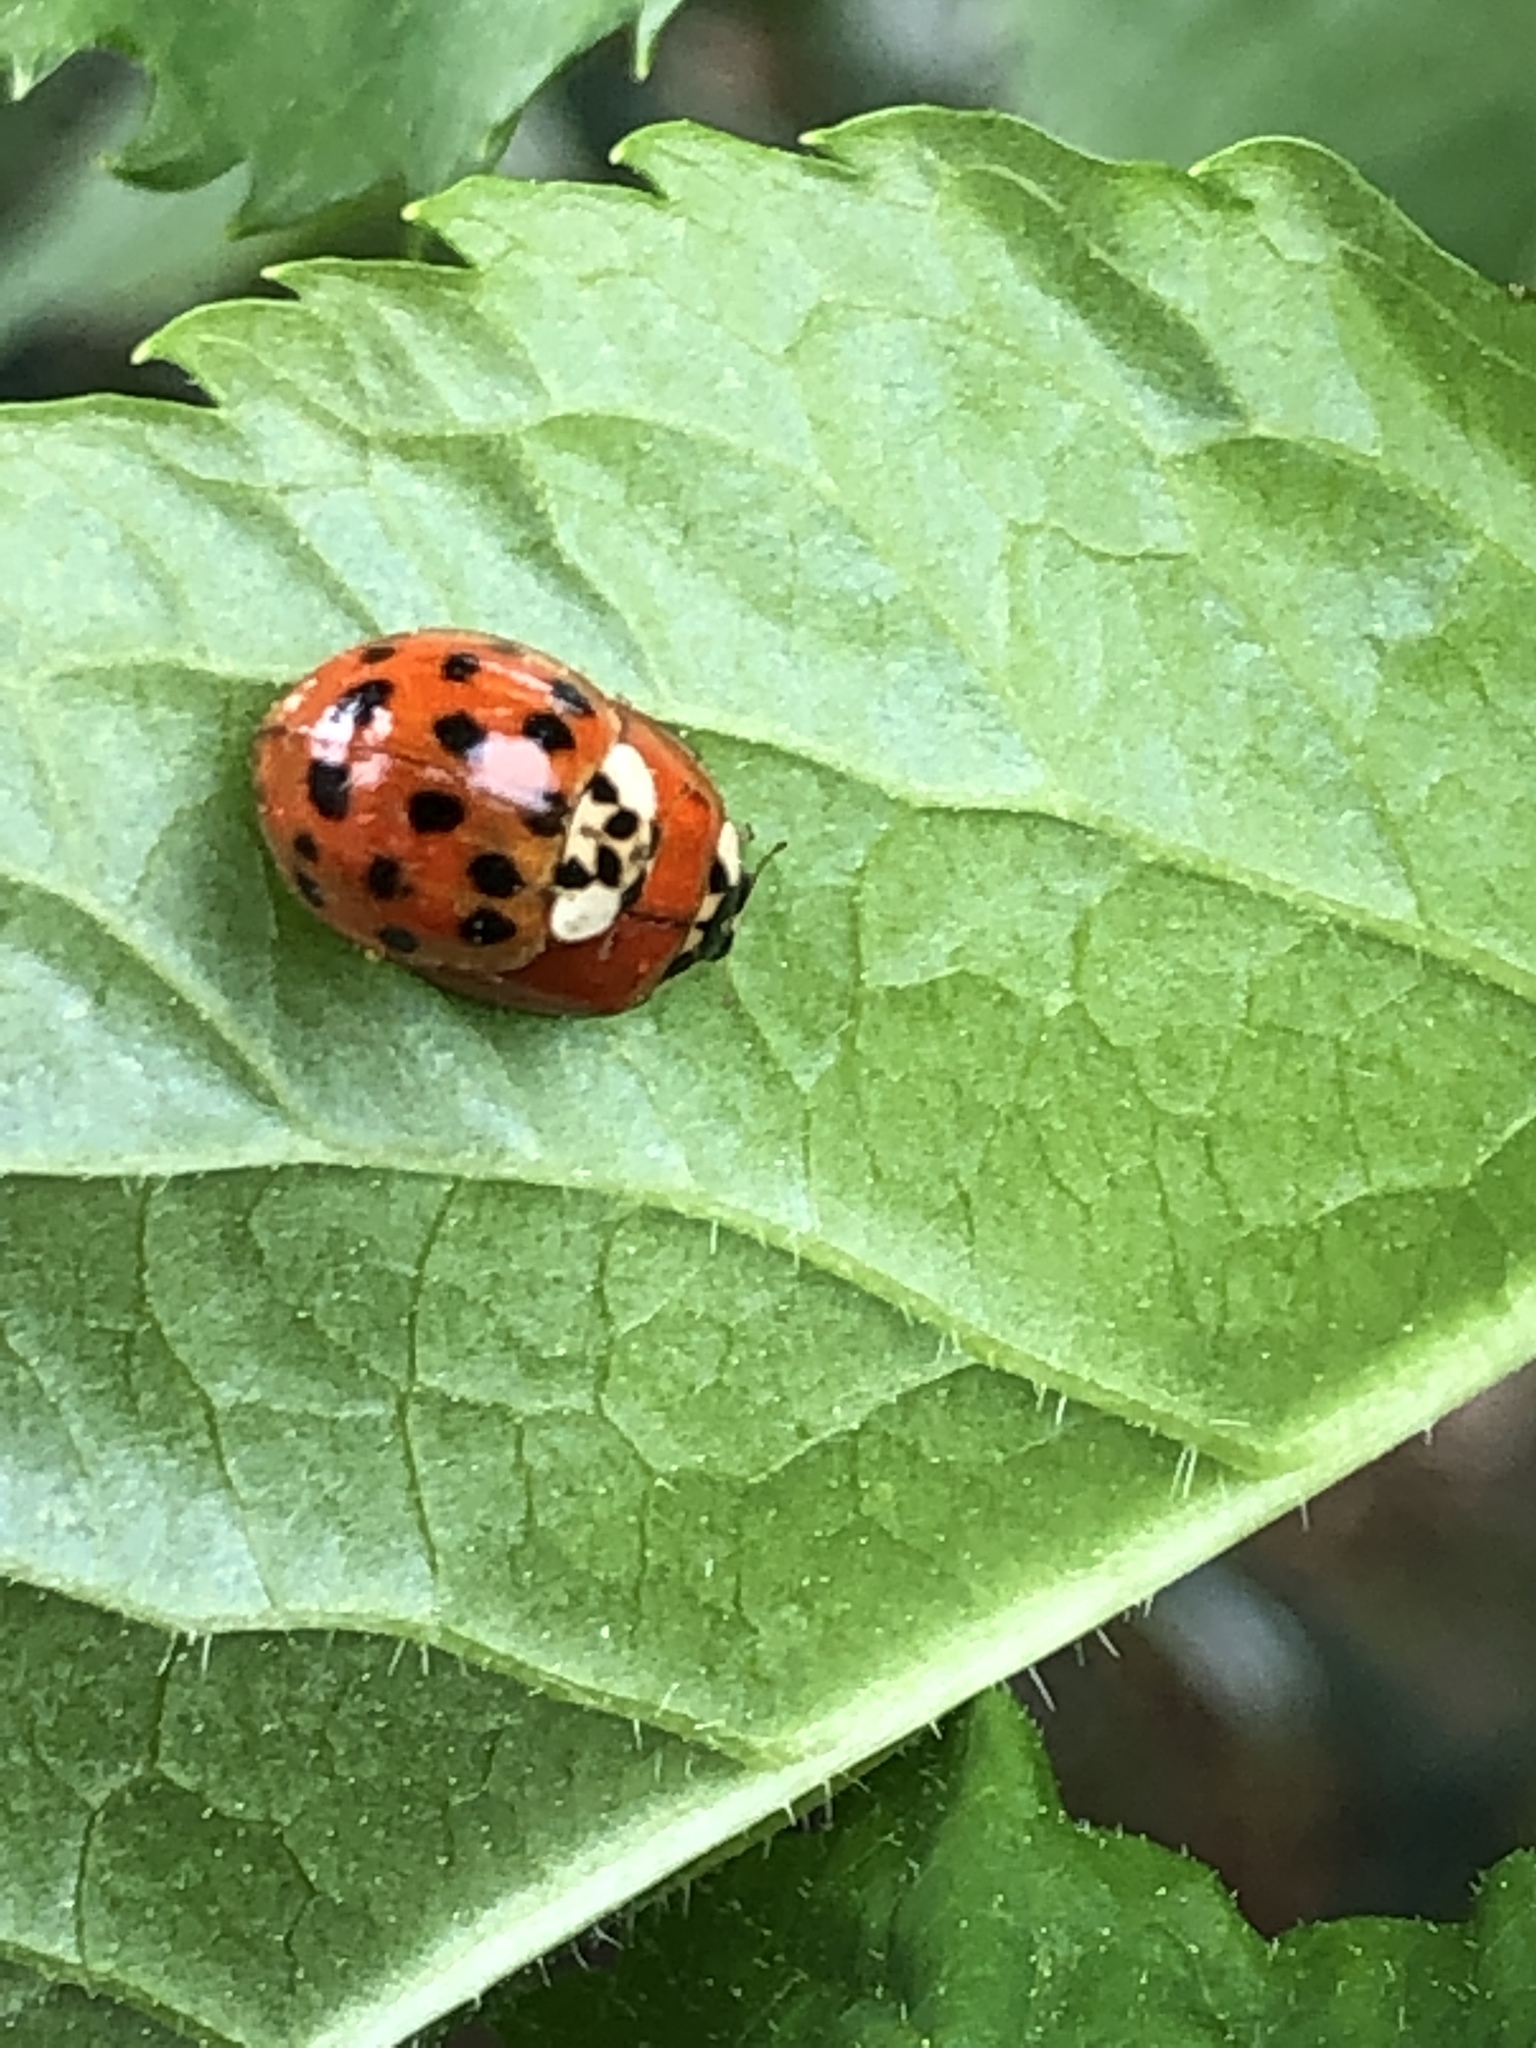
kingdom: Animalia
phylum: Arthropoda
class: Insecta
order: Coleoptera
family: Coccinellidae
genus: Harmonia
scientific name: Harmonia axyridis
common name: Harlequin ladybird
